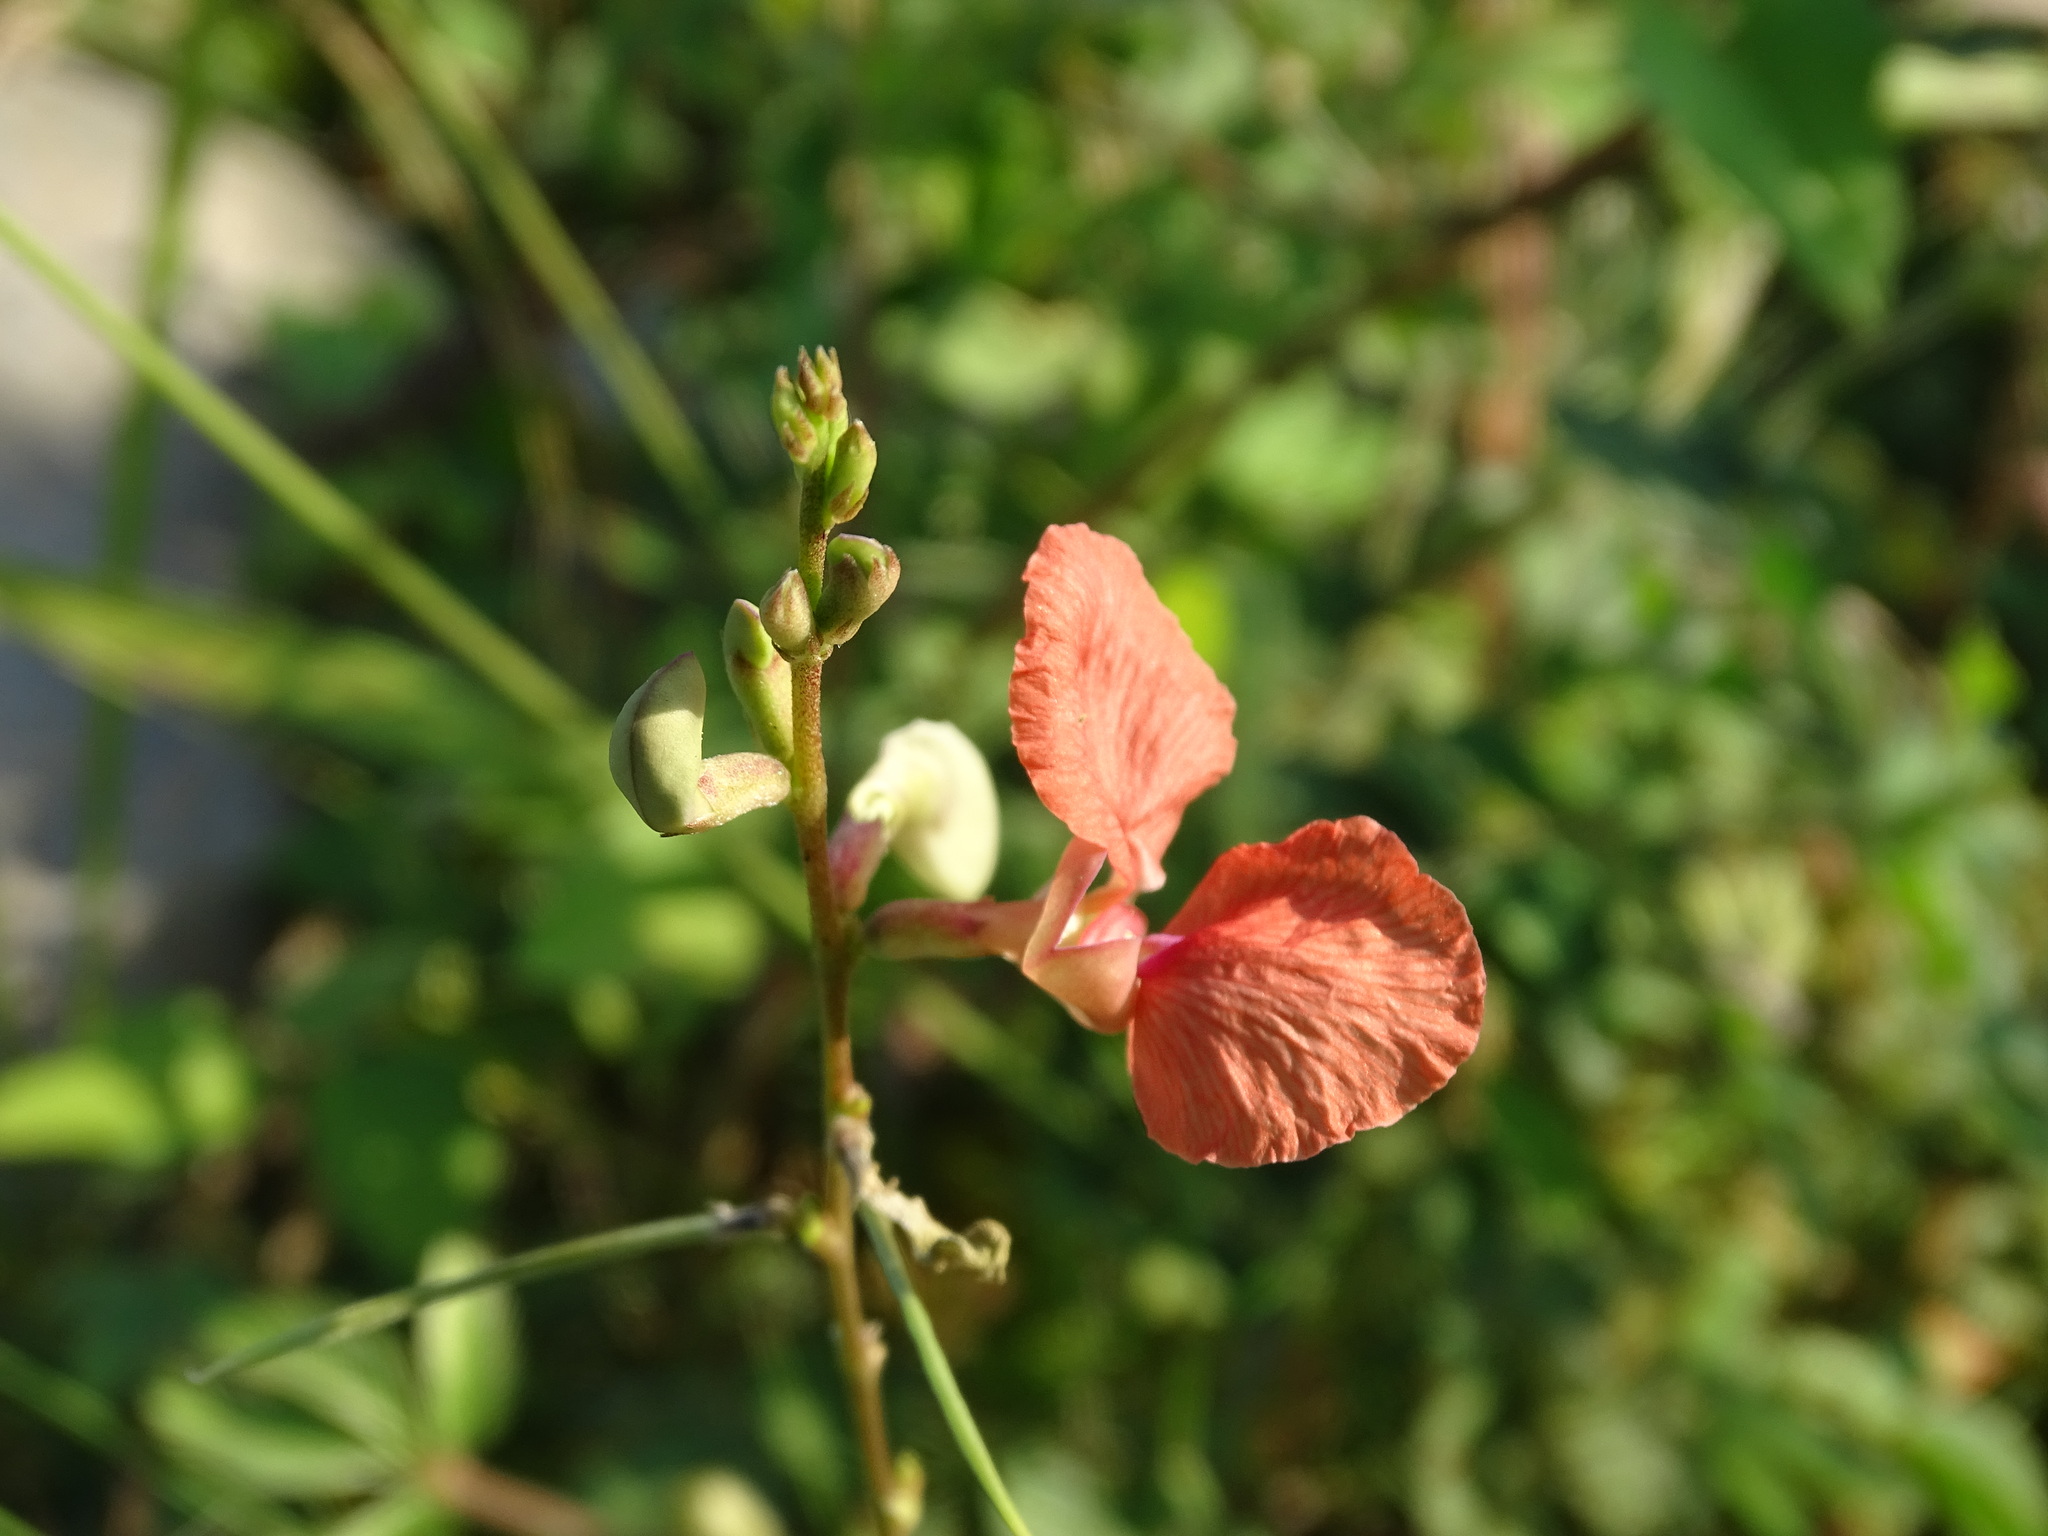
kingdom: Plantae
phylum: Tracheophyta
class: Magnoliopsida
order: Fabales
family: Fabaceae
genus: Macroptilium
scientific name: Macroptilium lathyroides
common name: Wild bushbean
